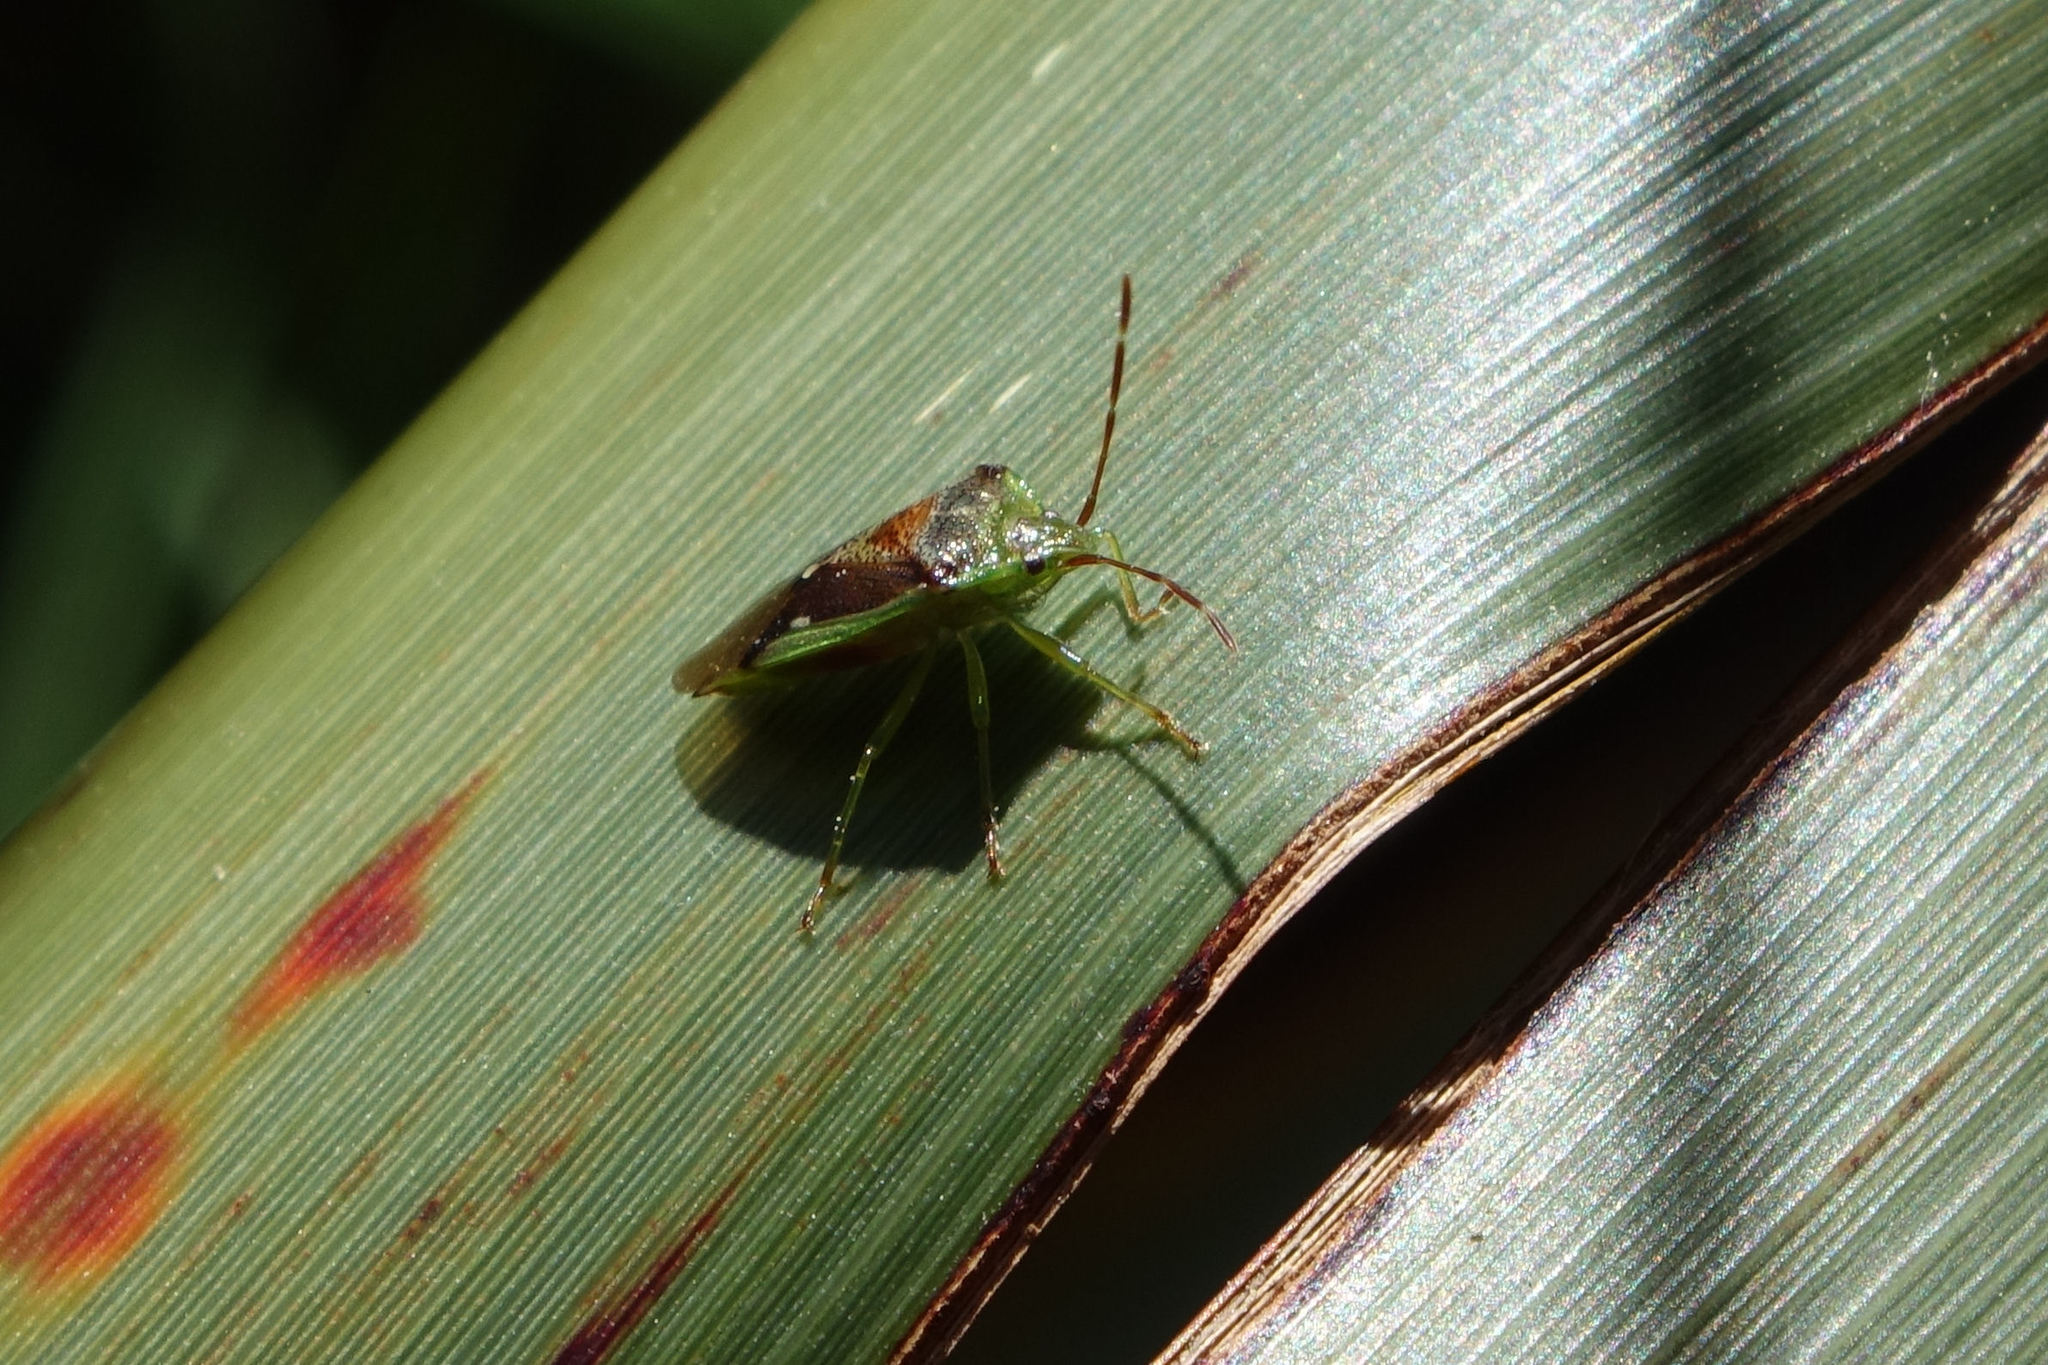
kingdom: Animalia
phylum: Arthropoda
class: Insecta
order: Hemiptera
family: Acanthosomatidae
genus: Oncacontias
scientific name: Oncacontias vittatus
